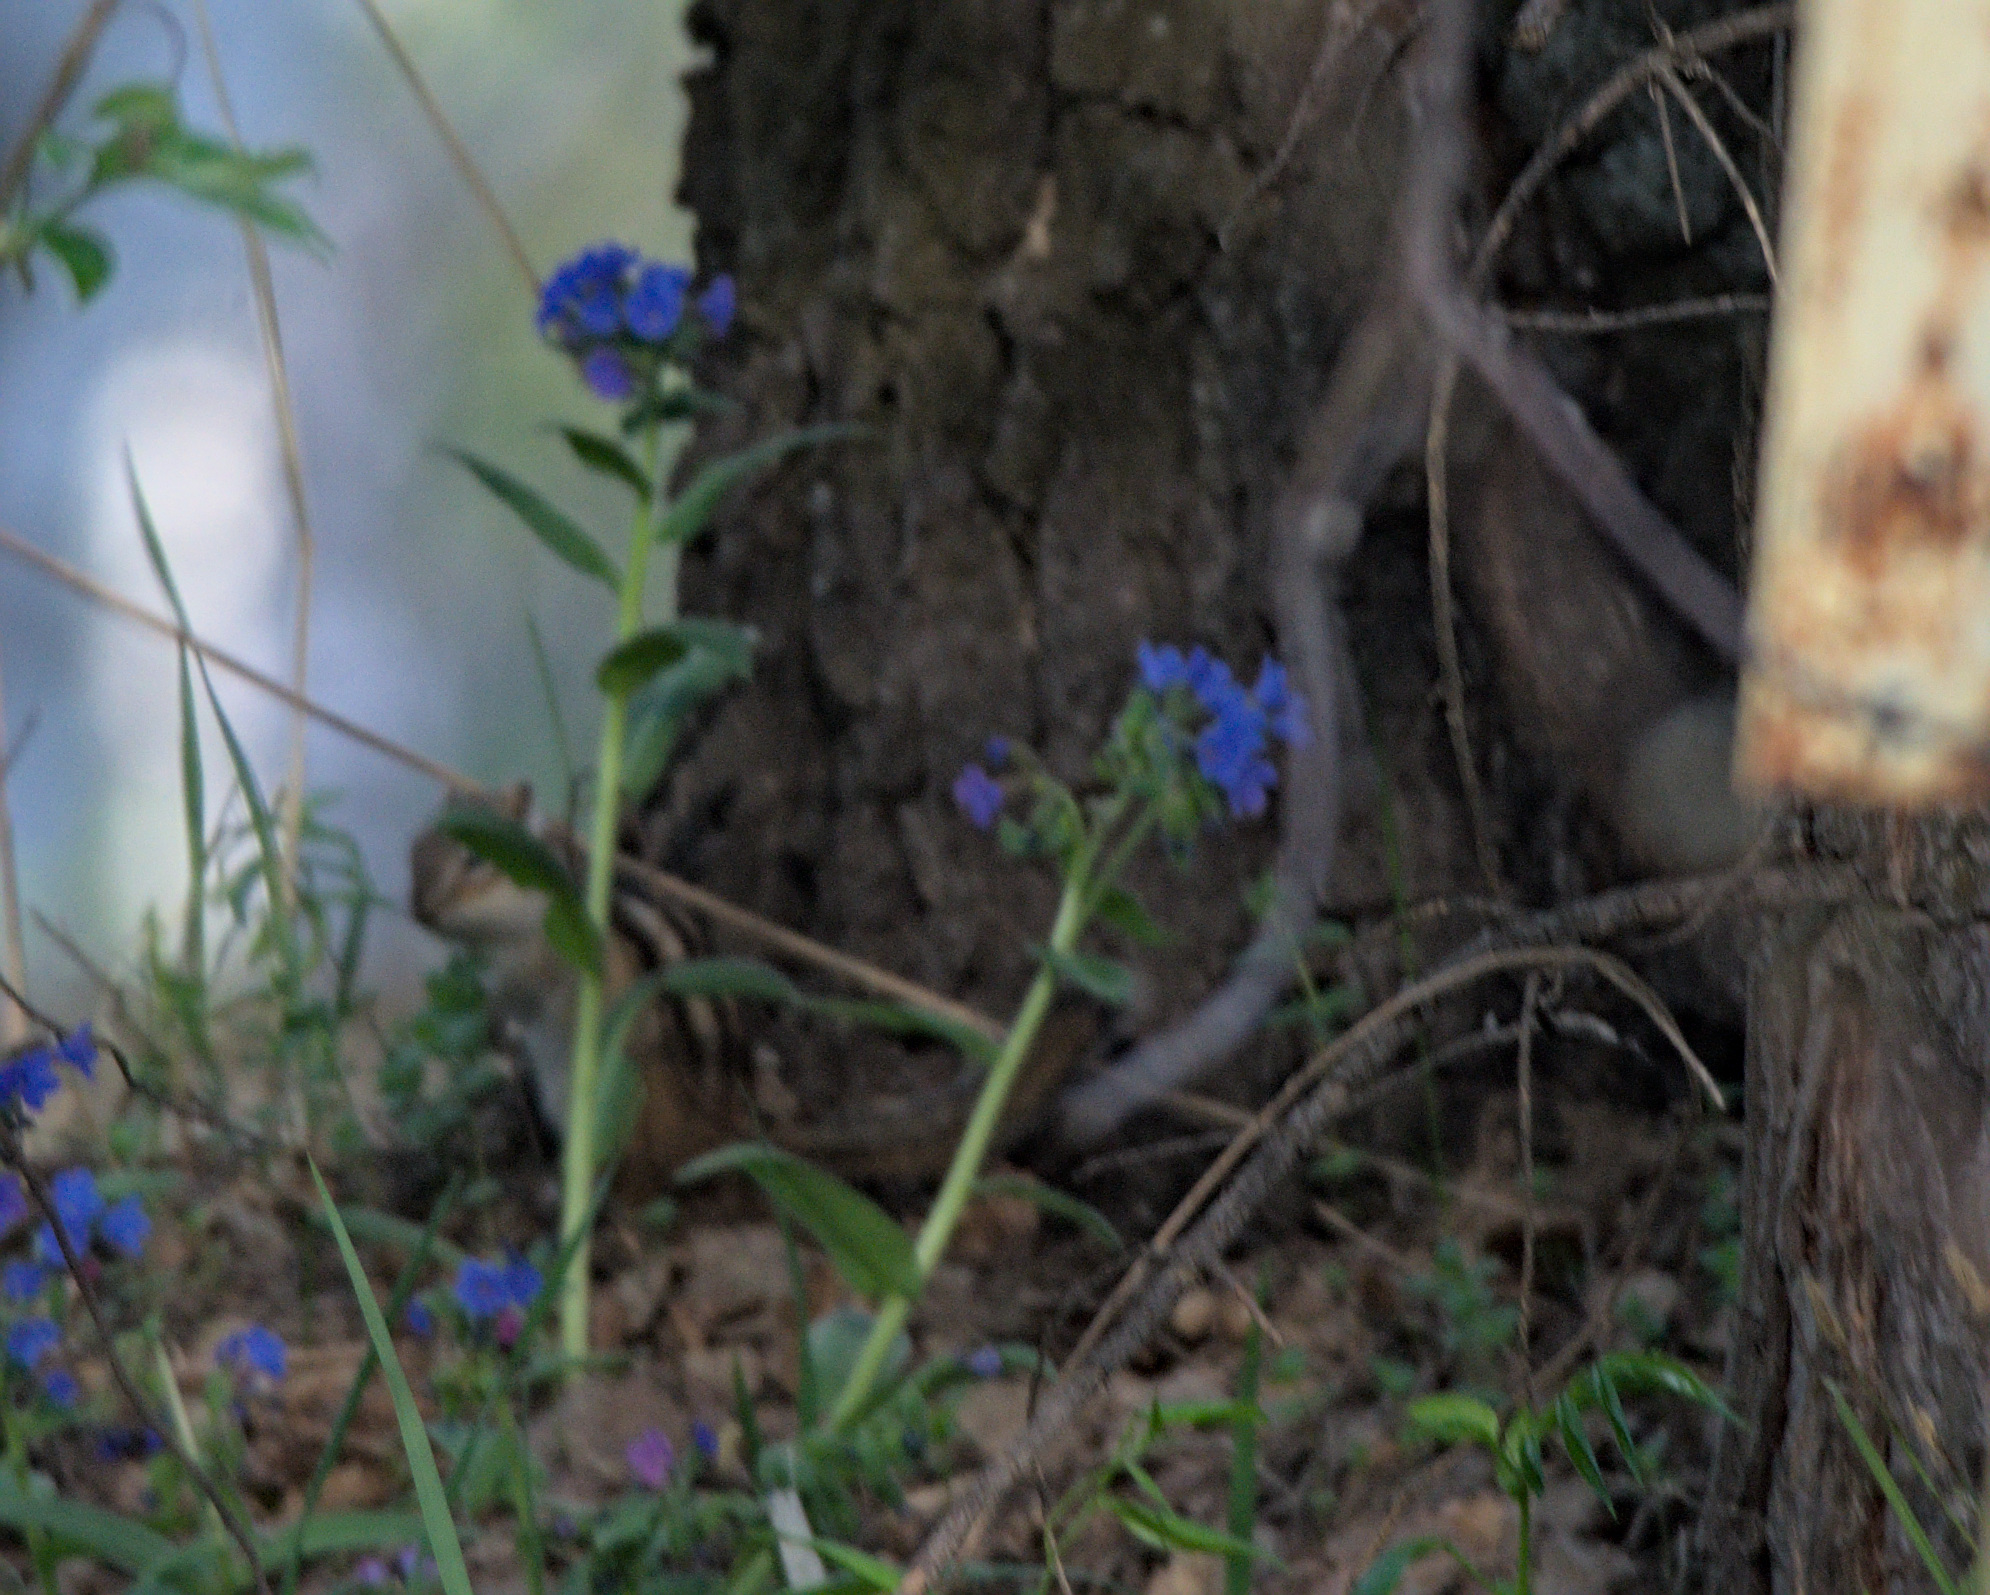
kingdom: Animalia
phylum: Chordata
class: Mammalia
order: Rodentia
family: Sciuridae
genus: Tamias
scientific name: Tamias sibiricus
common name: Siberian chipmunk
